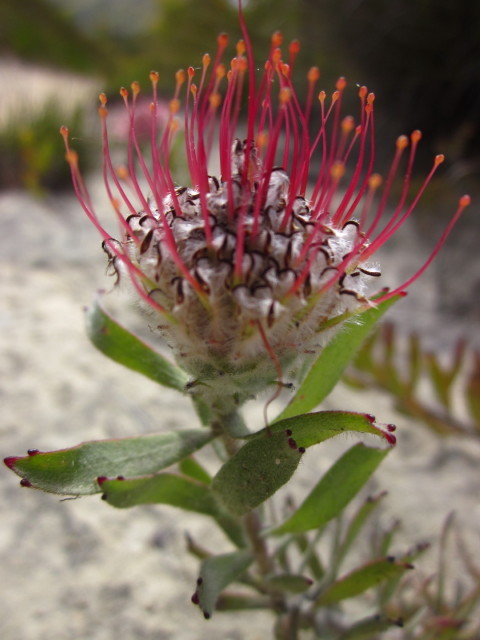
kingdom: Plantae
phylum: Tracheophyta
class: Magnoliopsida
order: Proteales
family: Proteaceae
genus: Leucospermum
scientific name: Leucospermum calligerum
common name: Arid pincushion
